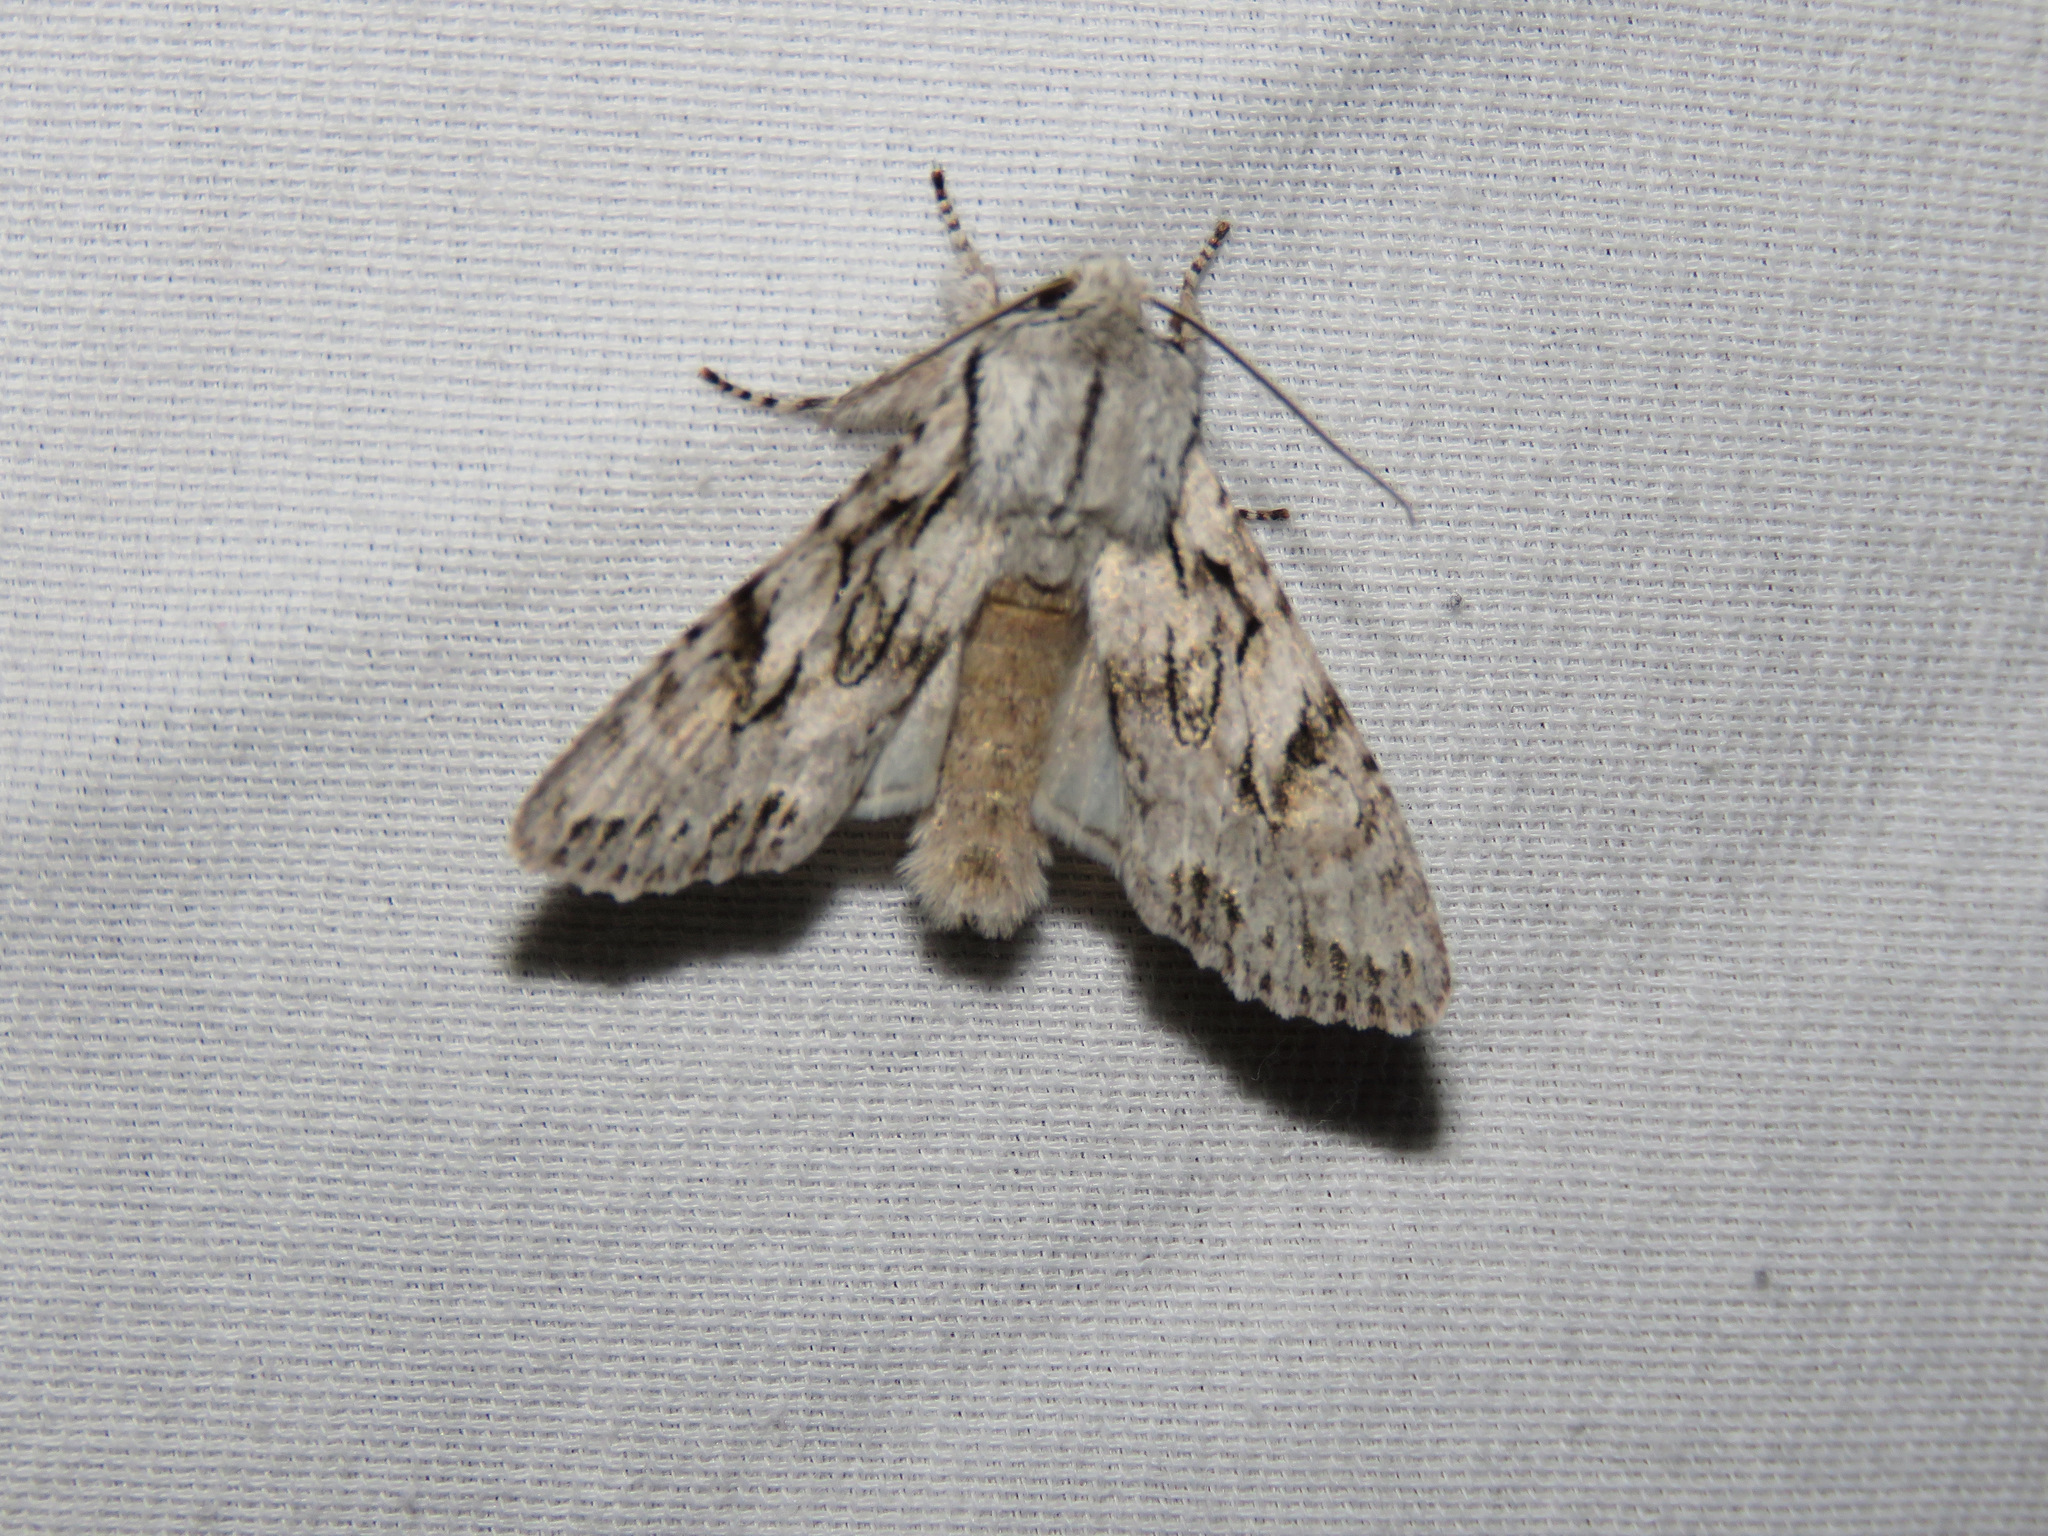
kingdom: Animalia
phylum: Arthropoda
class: Insecta
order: Lepidoptera
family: Noctuidae
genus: Egira
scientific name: Egira simplex
